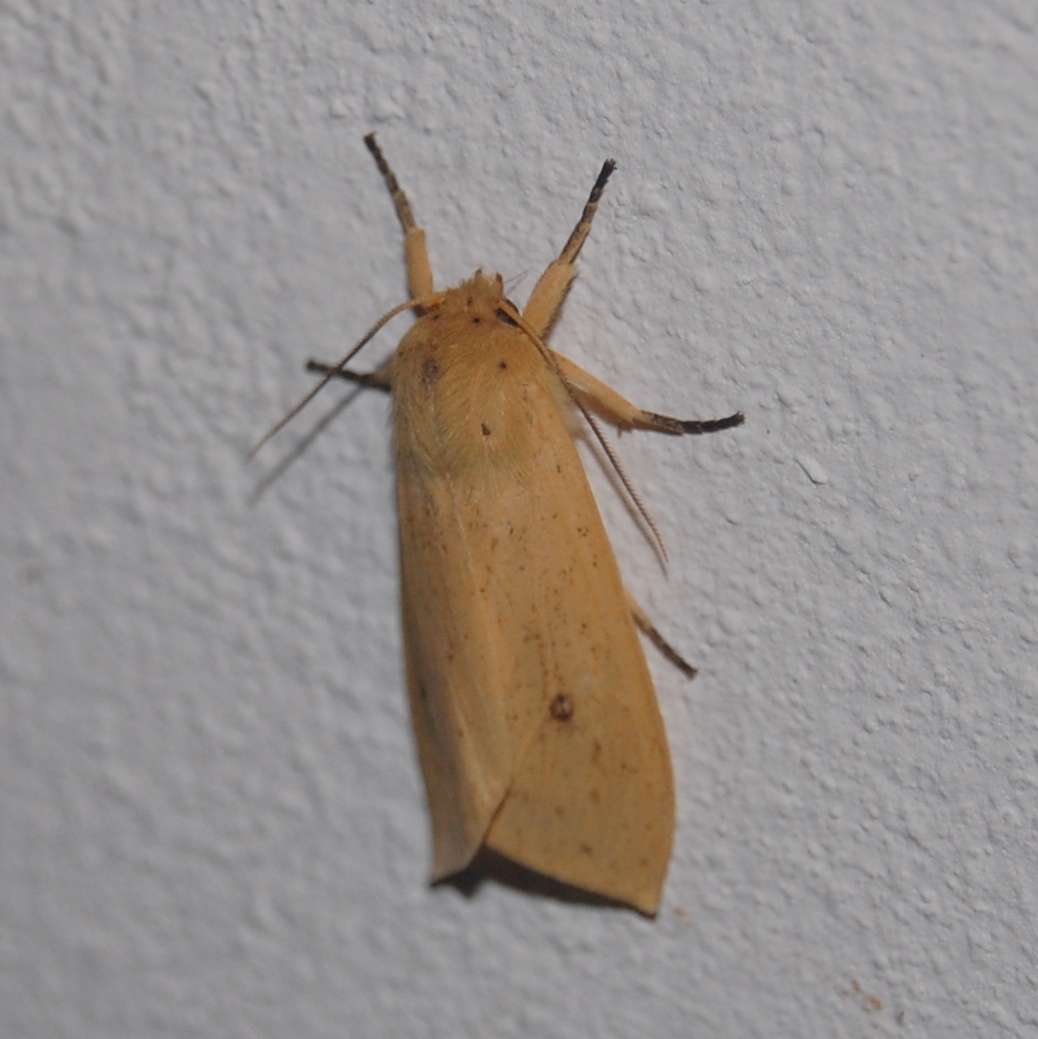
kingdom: Animalia
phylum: Arthropoda
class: Insecta
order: Lepidoptera
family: Erebidae
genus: Leucanopsis
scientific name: Leucanopsis leucanina
